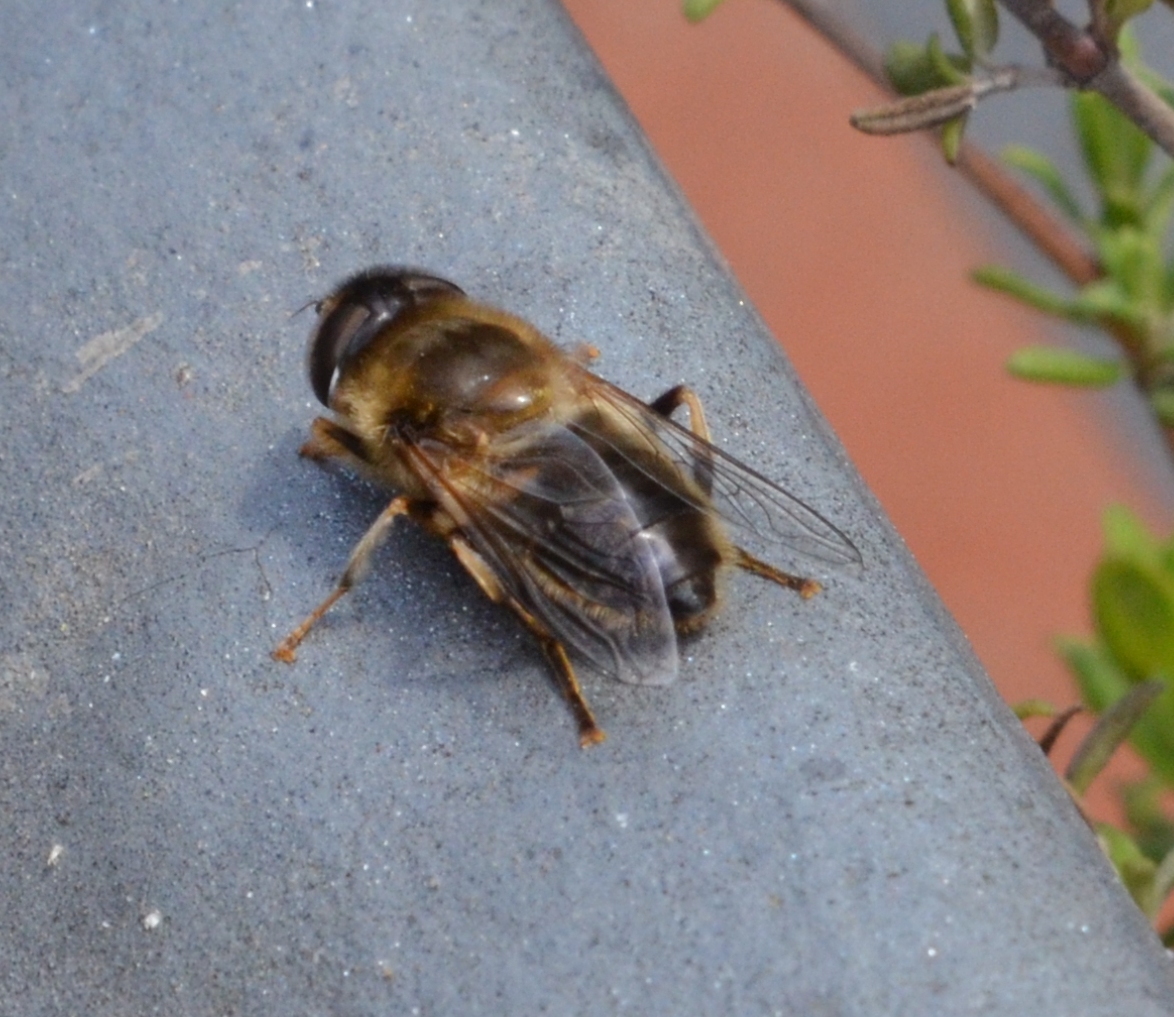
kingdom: Animalia
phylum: Arthropoda
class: Insecta
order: Diptera
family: Syrphidae
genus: Eristalis
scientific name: Eristalis pertinax
